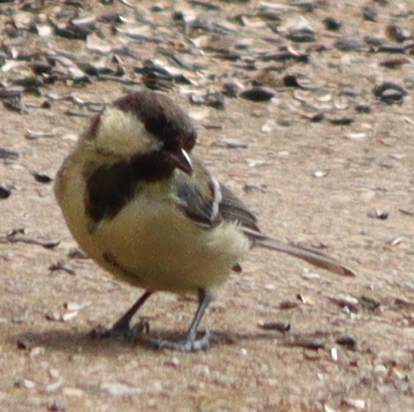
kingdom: Animalia
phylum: Chordata
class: Aves
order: Passeriformes
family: Paridae
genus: Parus
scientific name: Parus major
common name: Great tit
